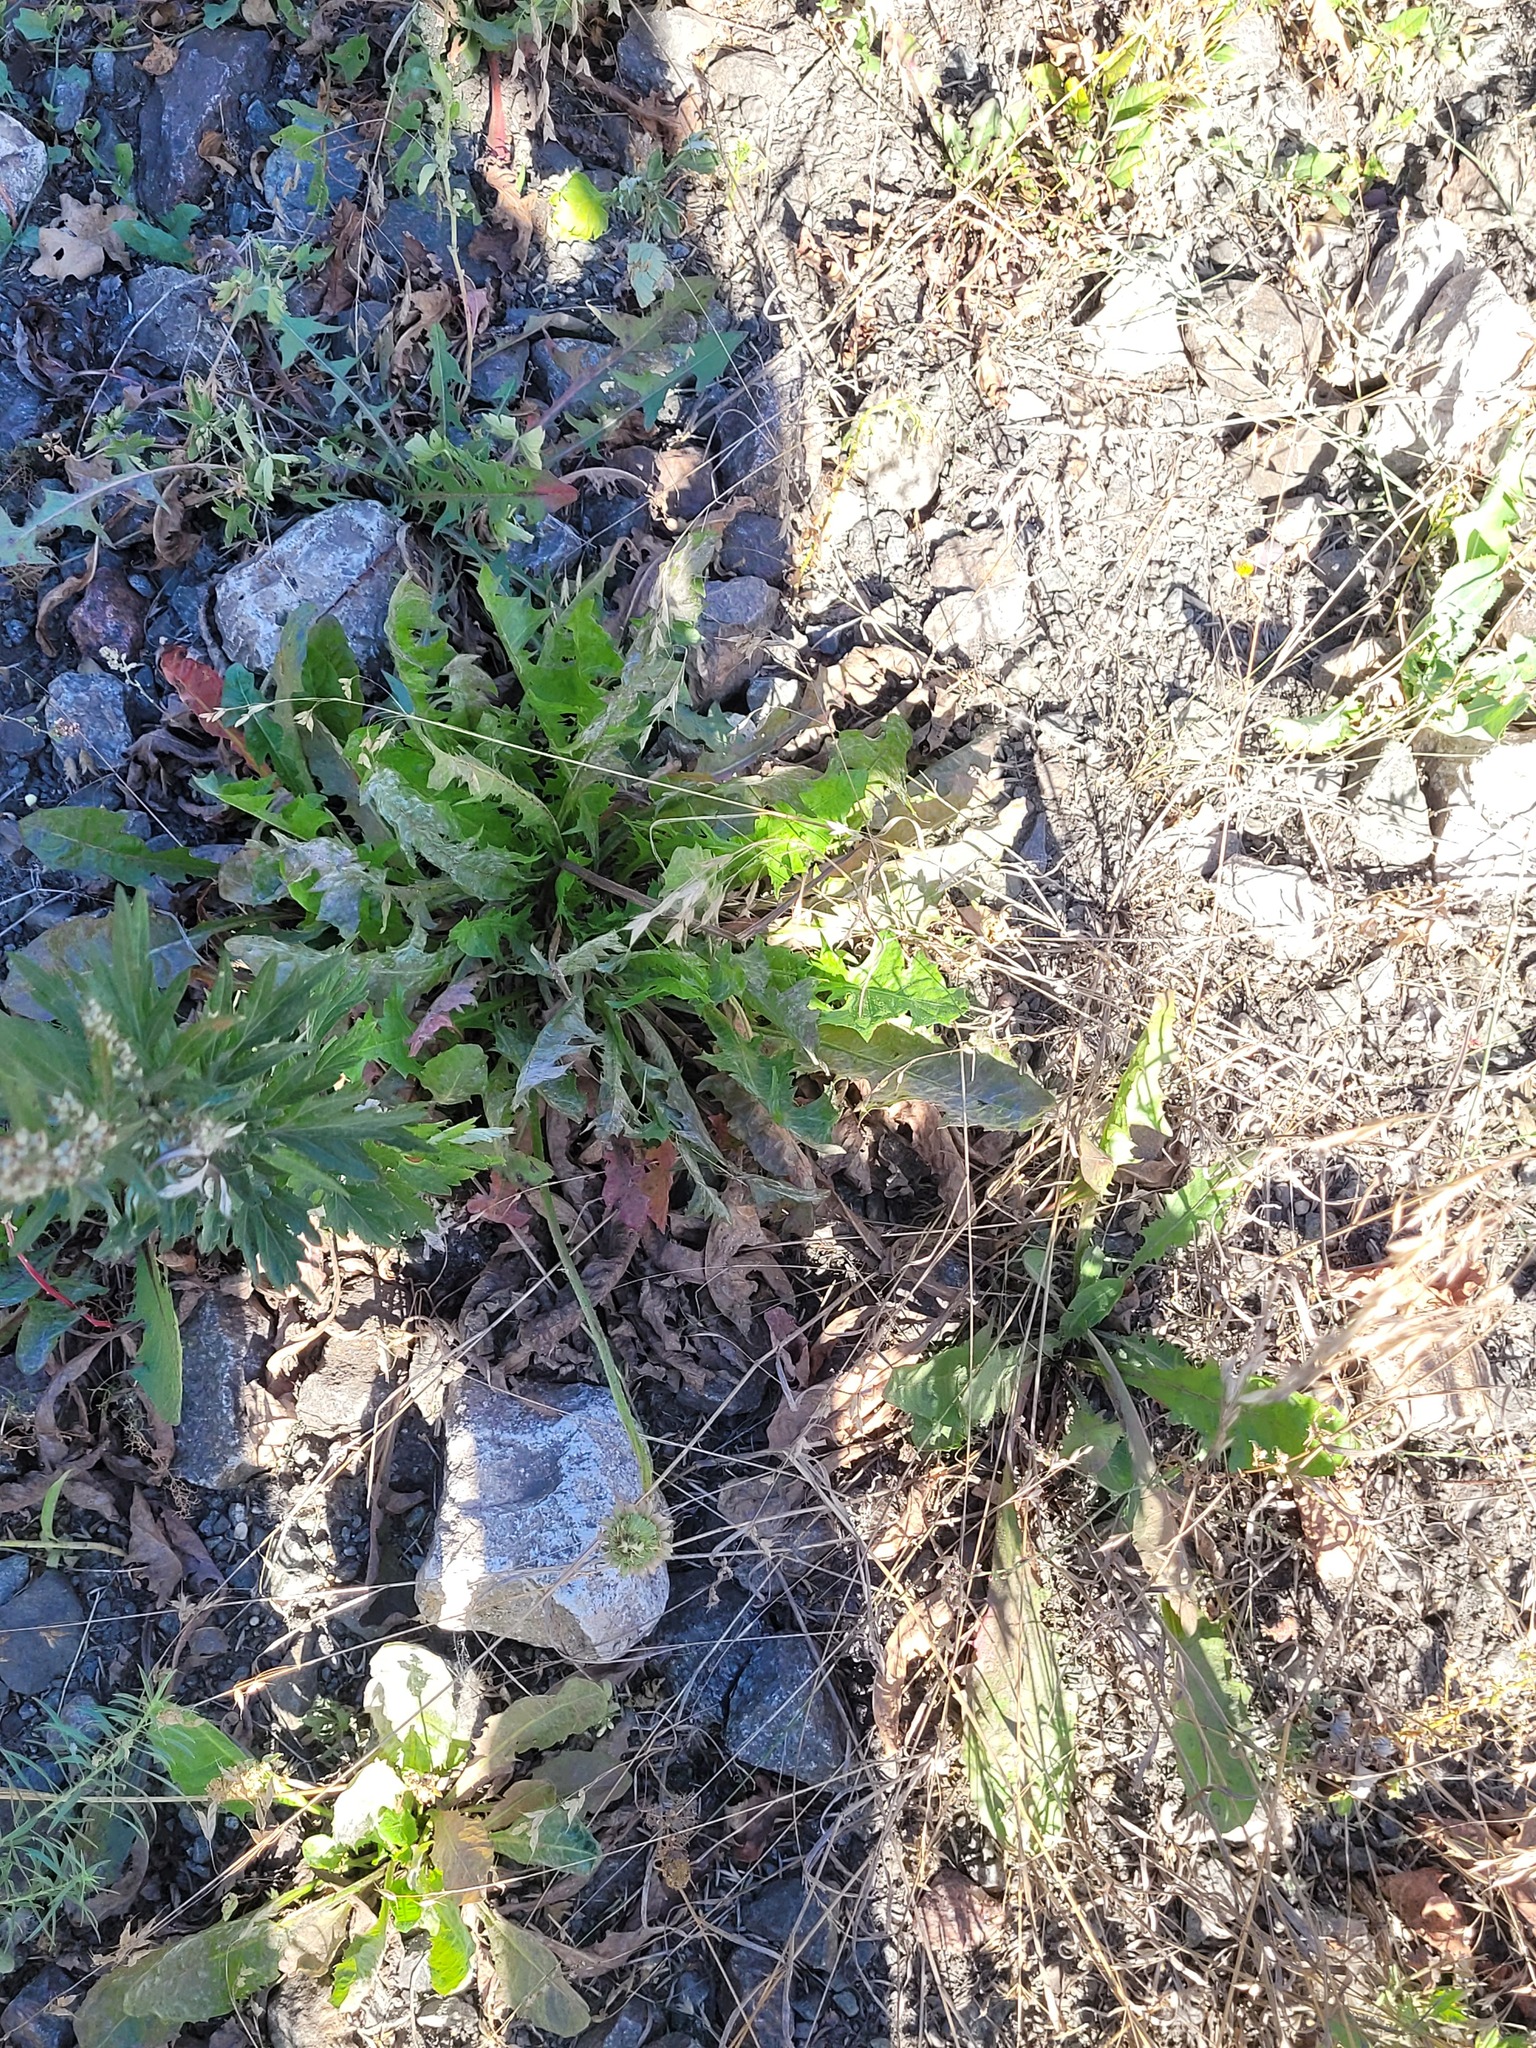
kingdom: Plantae
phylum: Tracheophyta
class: Magnoliopsida
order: Asterales
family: Asteraceae
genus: Taraxacum
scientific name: Taraxacum officinale
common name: Common dandelion
